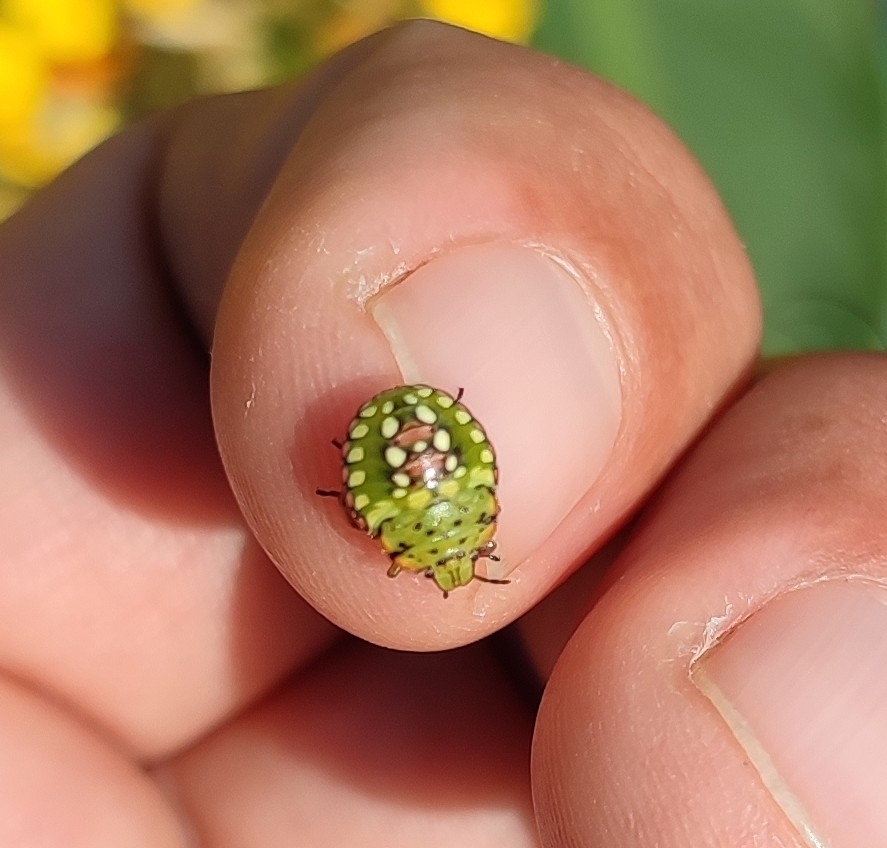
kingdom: Animalia
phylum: Arthropoda
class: Insecta
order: Hemiptera
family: Pentatomidae
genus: Nezara
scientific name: Nezara viridula
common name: Southern green stink bug
